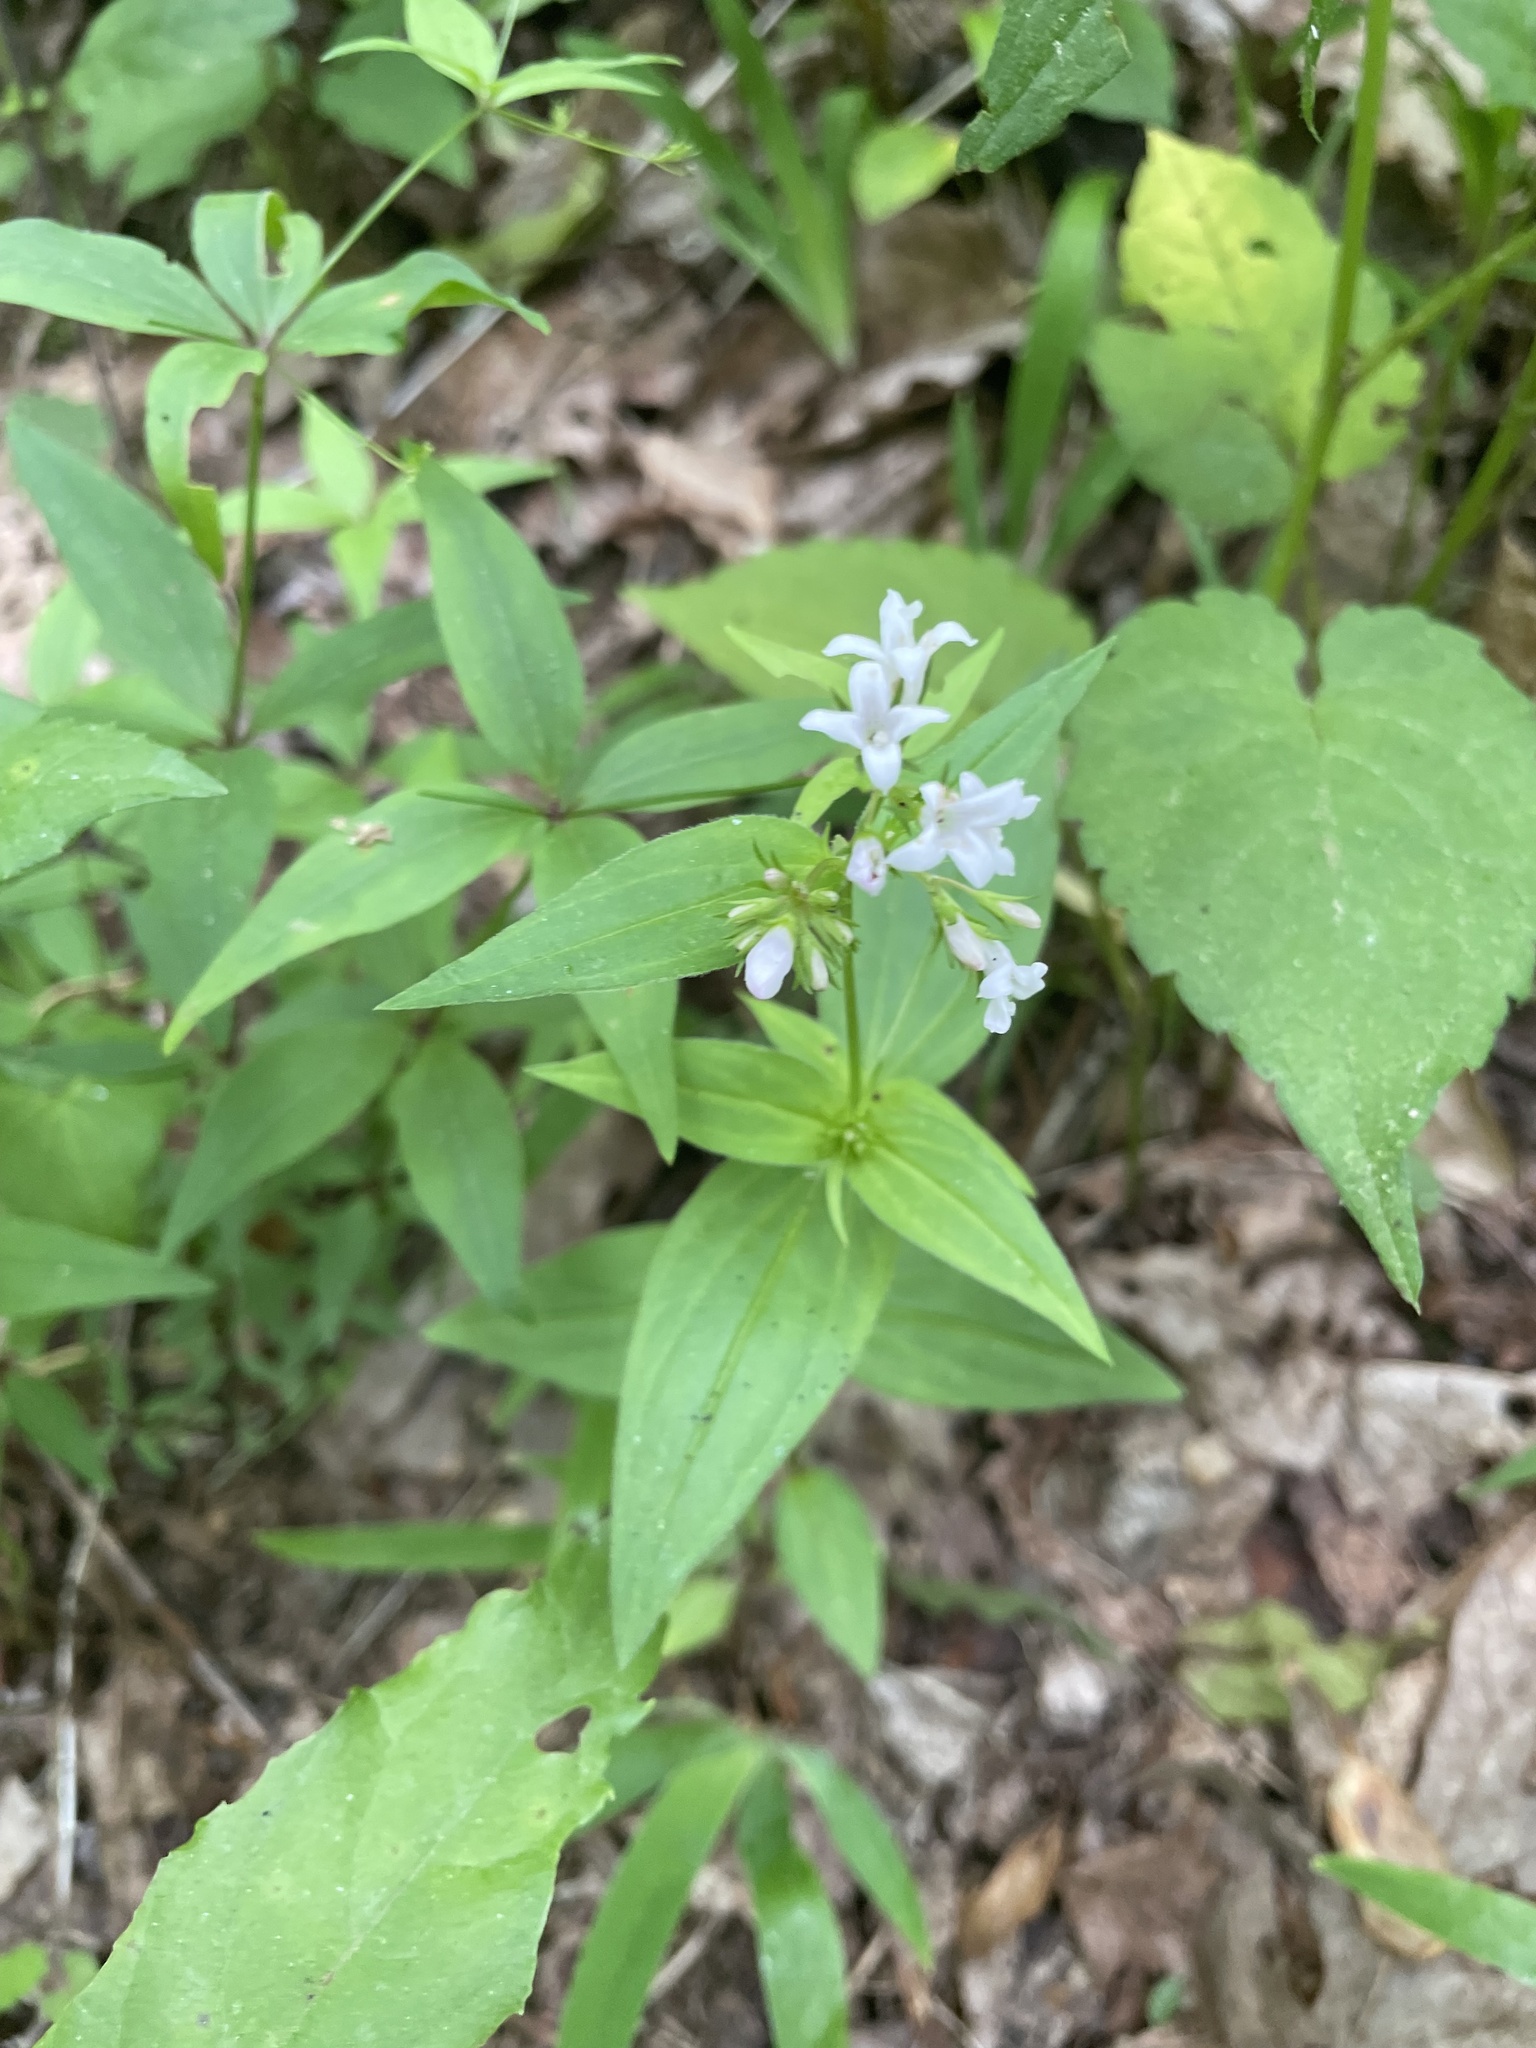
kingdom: Plantae
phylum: Tracheophyta
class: Magnoliopsida
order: Gentianales
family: Rubiaceae
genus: Houstonia
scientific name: Houstonia purpurea
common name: Summer bluet
